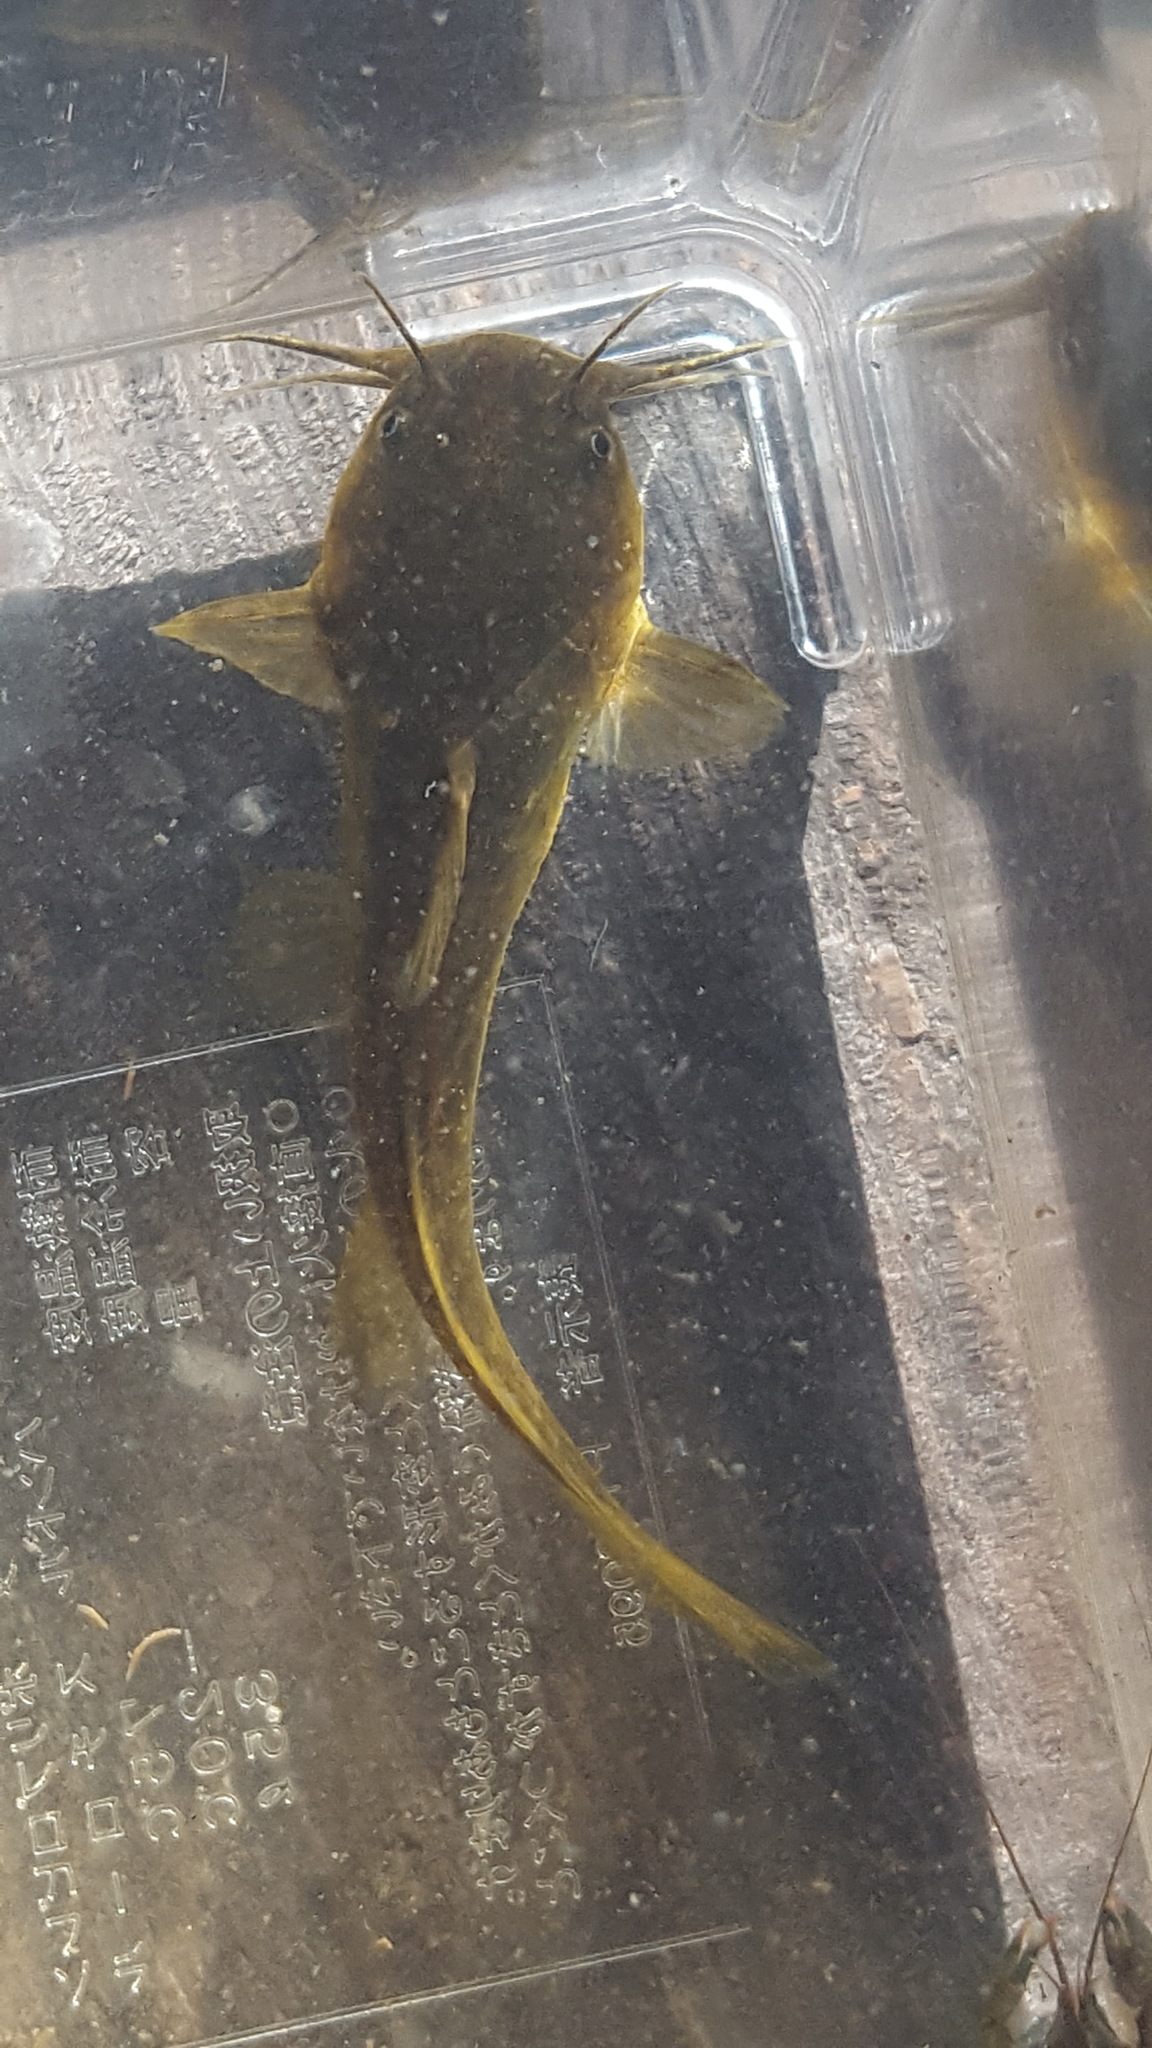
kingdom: Animalia
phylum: Chordata
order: Siluriformes
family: Ictaluridae
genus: Noturus
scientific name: Noturus gyrinus
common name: Tadpole madtom
